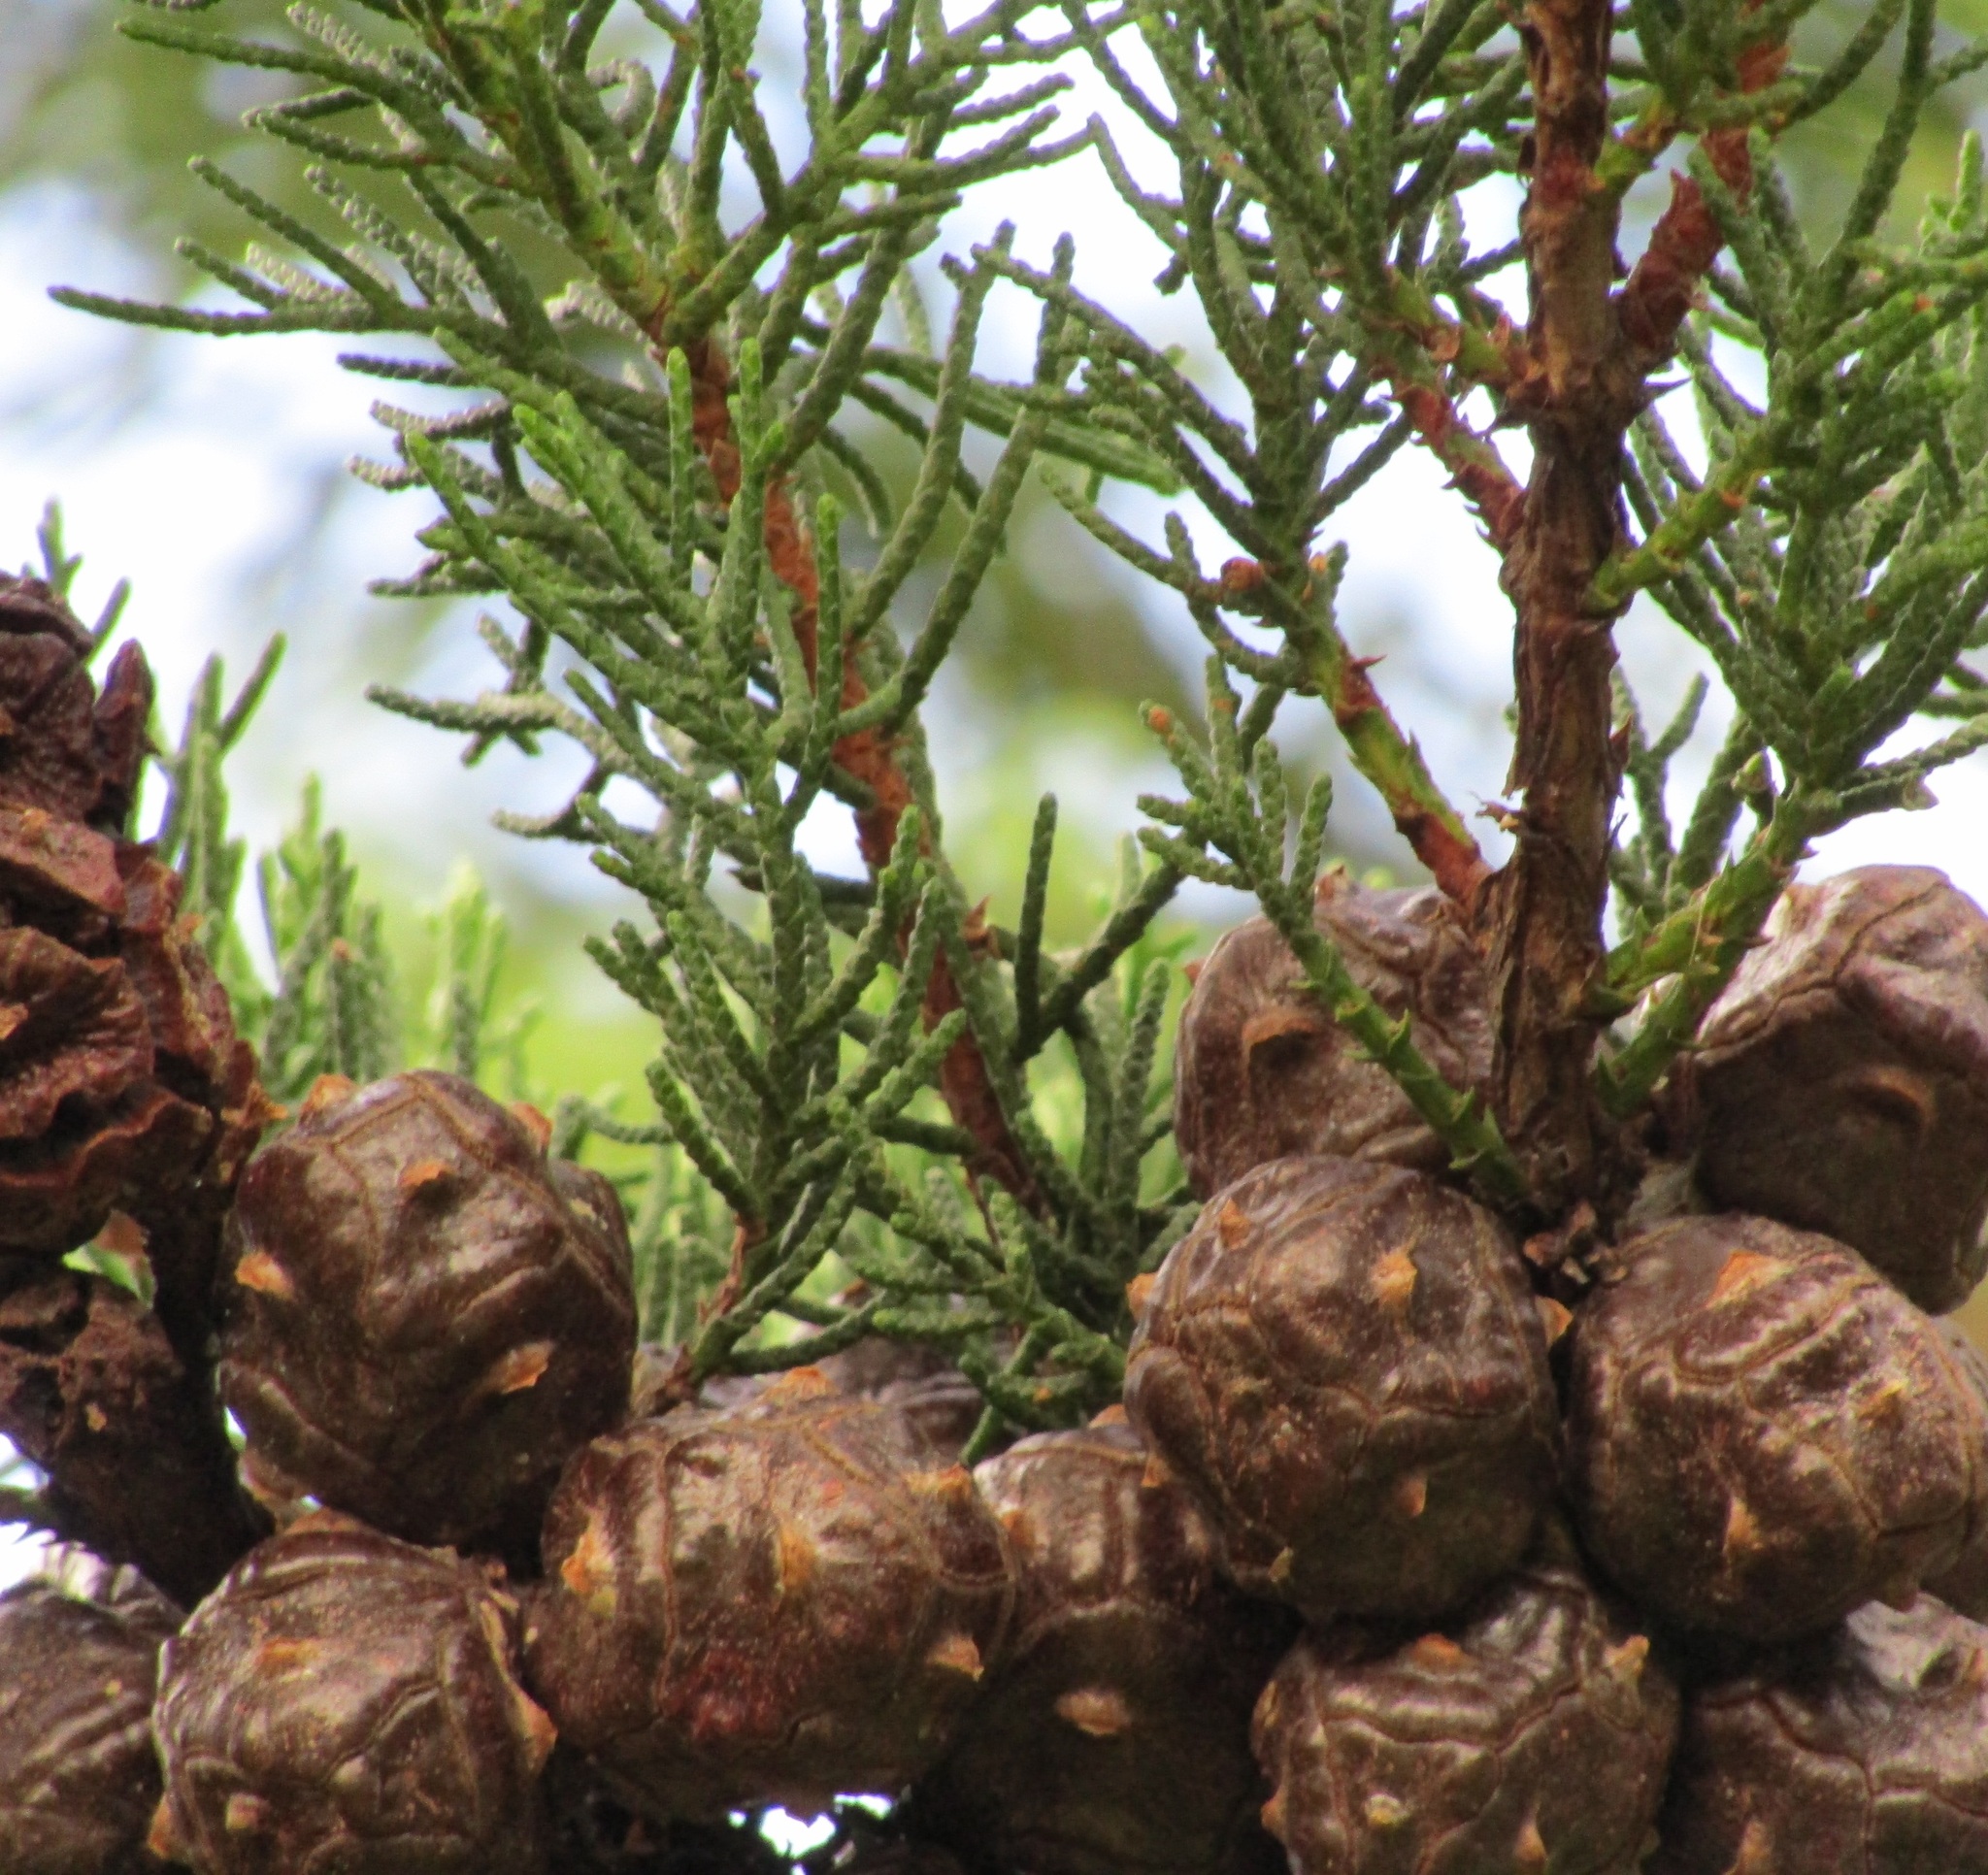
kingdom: Plantae
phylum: Tracheophyta
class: Pinopsida
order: Pinales
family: Cupressaceae
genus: Cupressus
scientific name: Cupressus macrocarpa
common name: Monterey cypress
